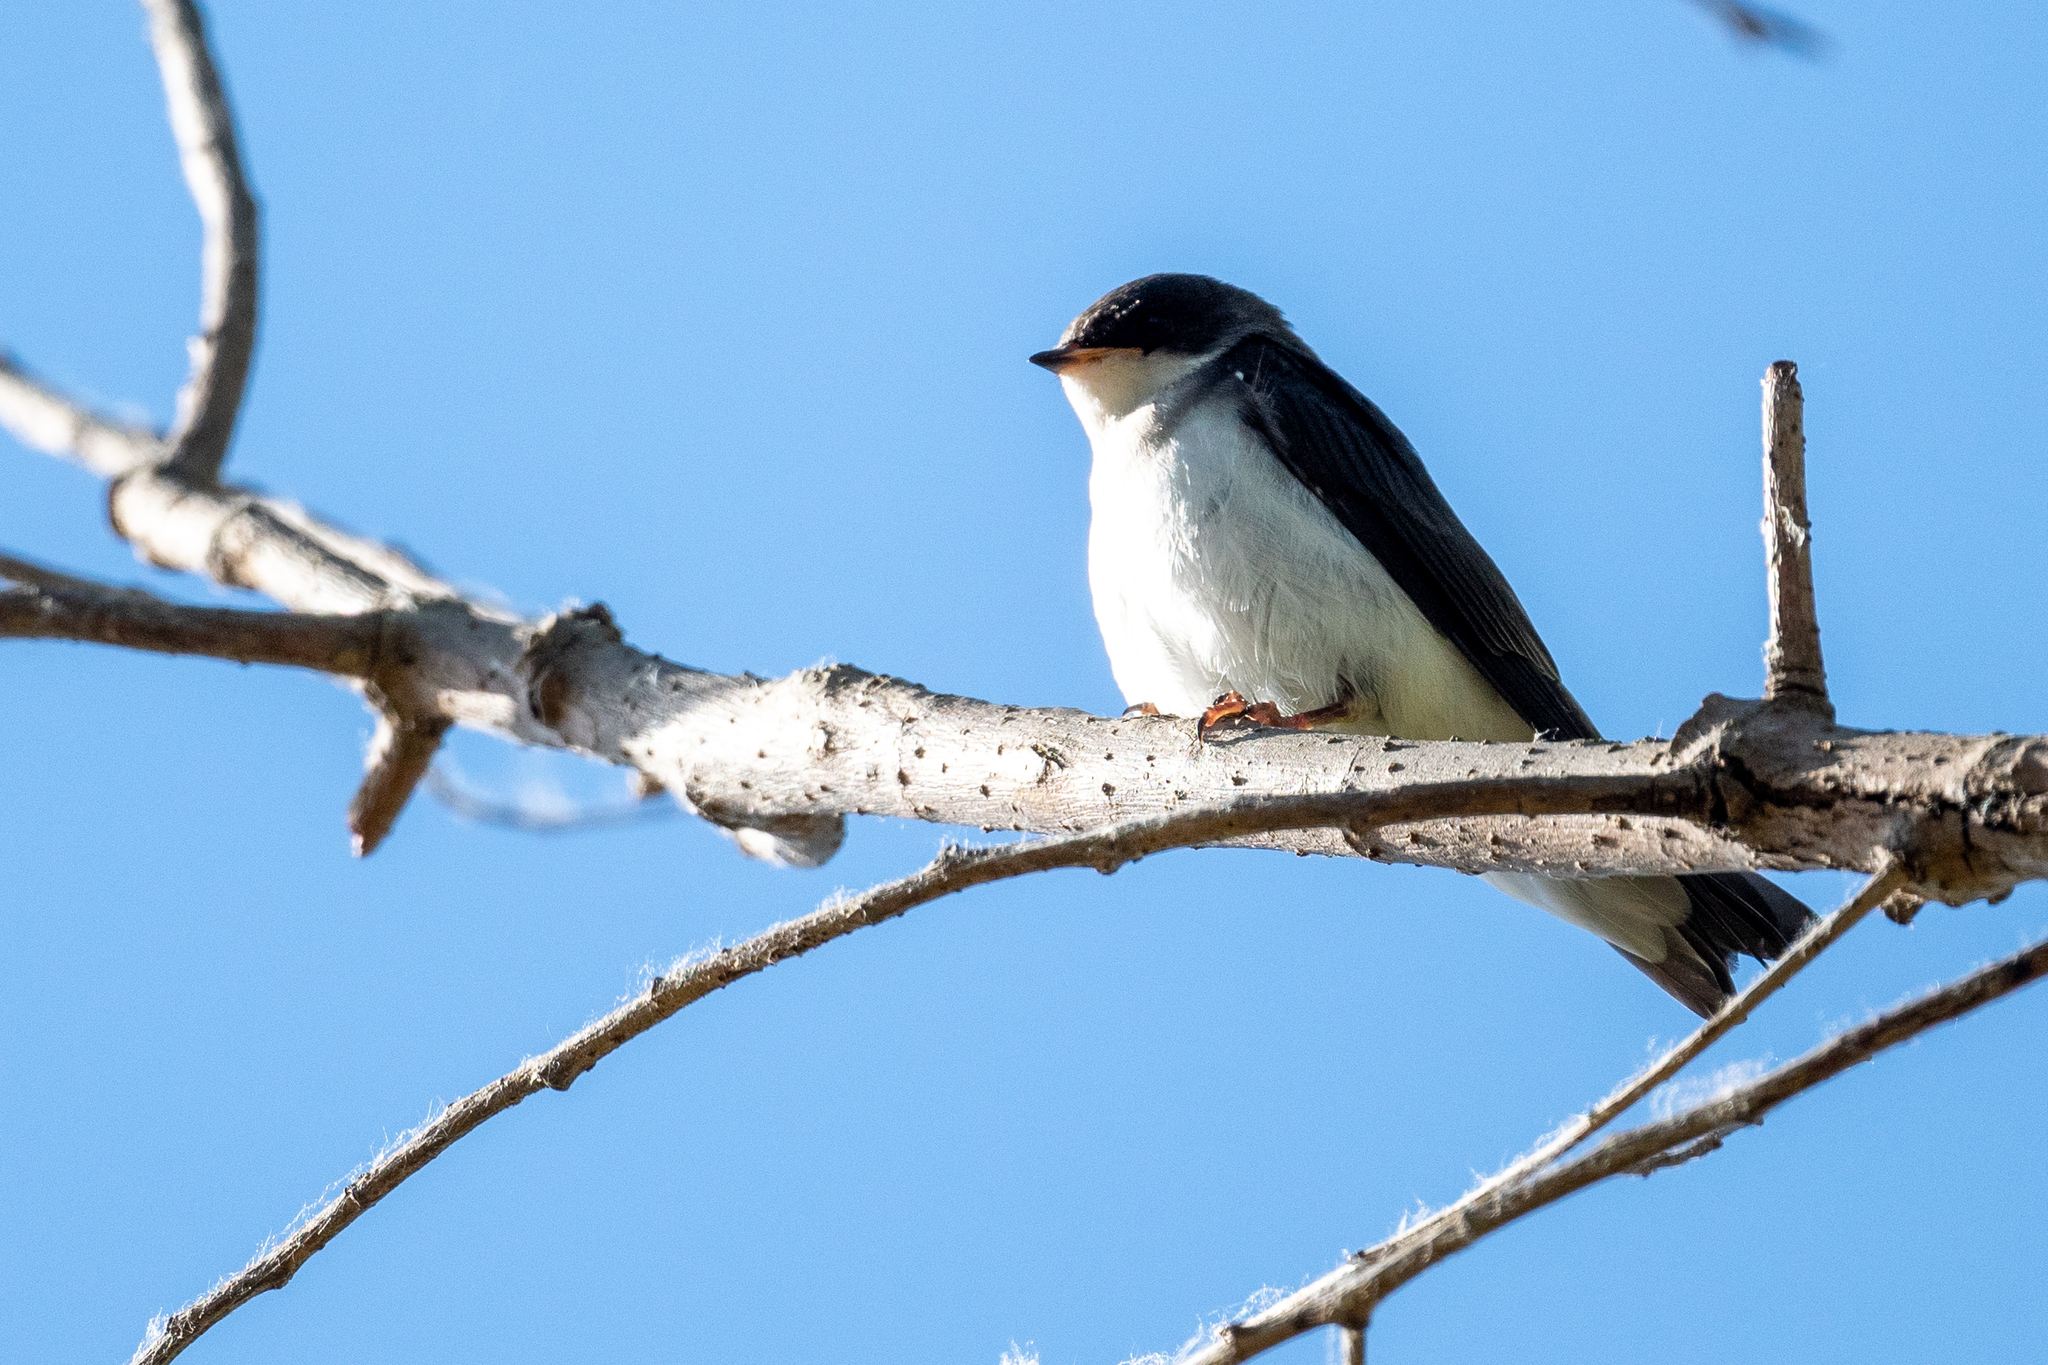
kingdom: Animalia
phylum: Chordata
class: Aves
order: Passeriformes
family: Hirundinidae
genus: Tachycineta
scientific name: Tachycineta bicolor
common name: Tree swallow
